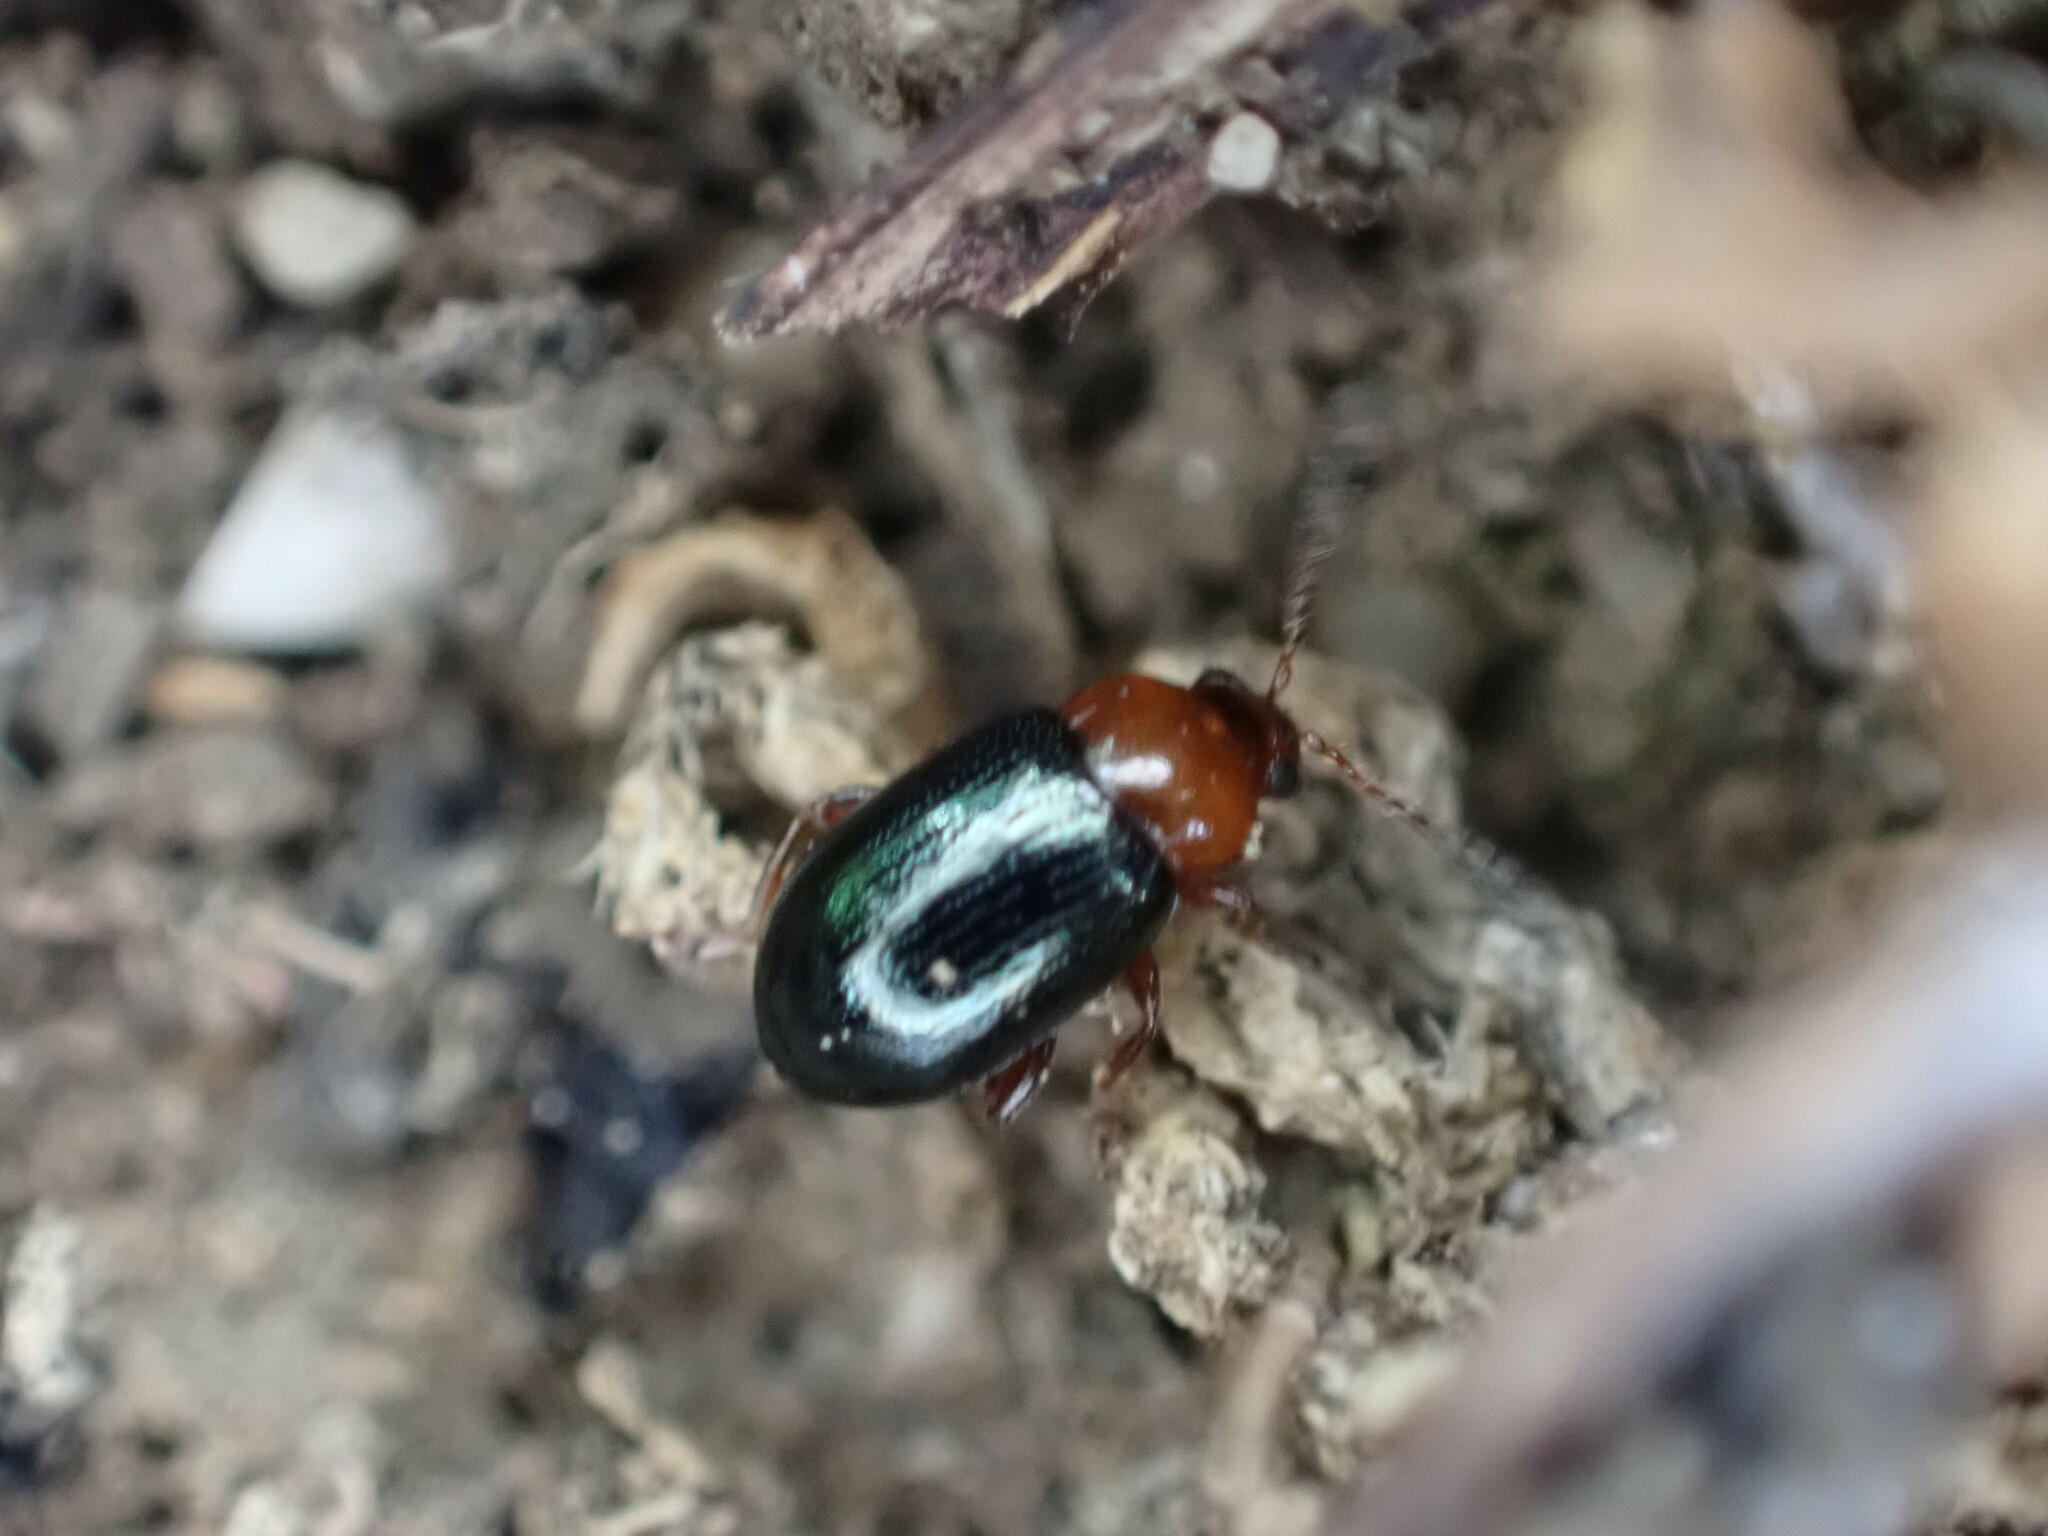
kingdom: Animalia
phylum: Arthropoda
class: Insecta
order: Coleoptera
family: Chrysomelidae
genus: Podagrica
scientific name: Podagrica malvae
